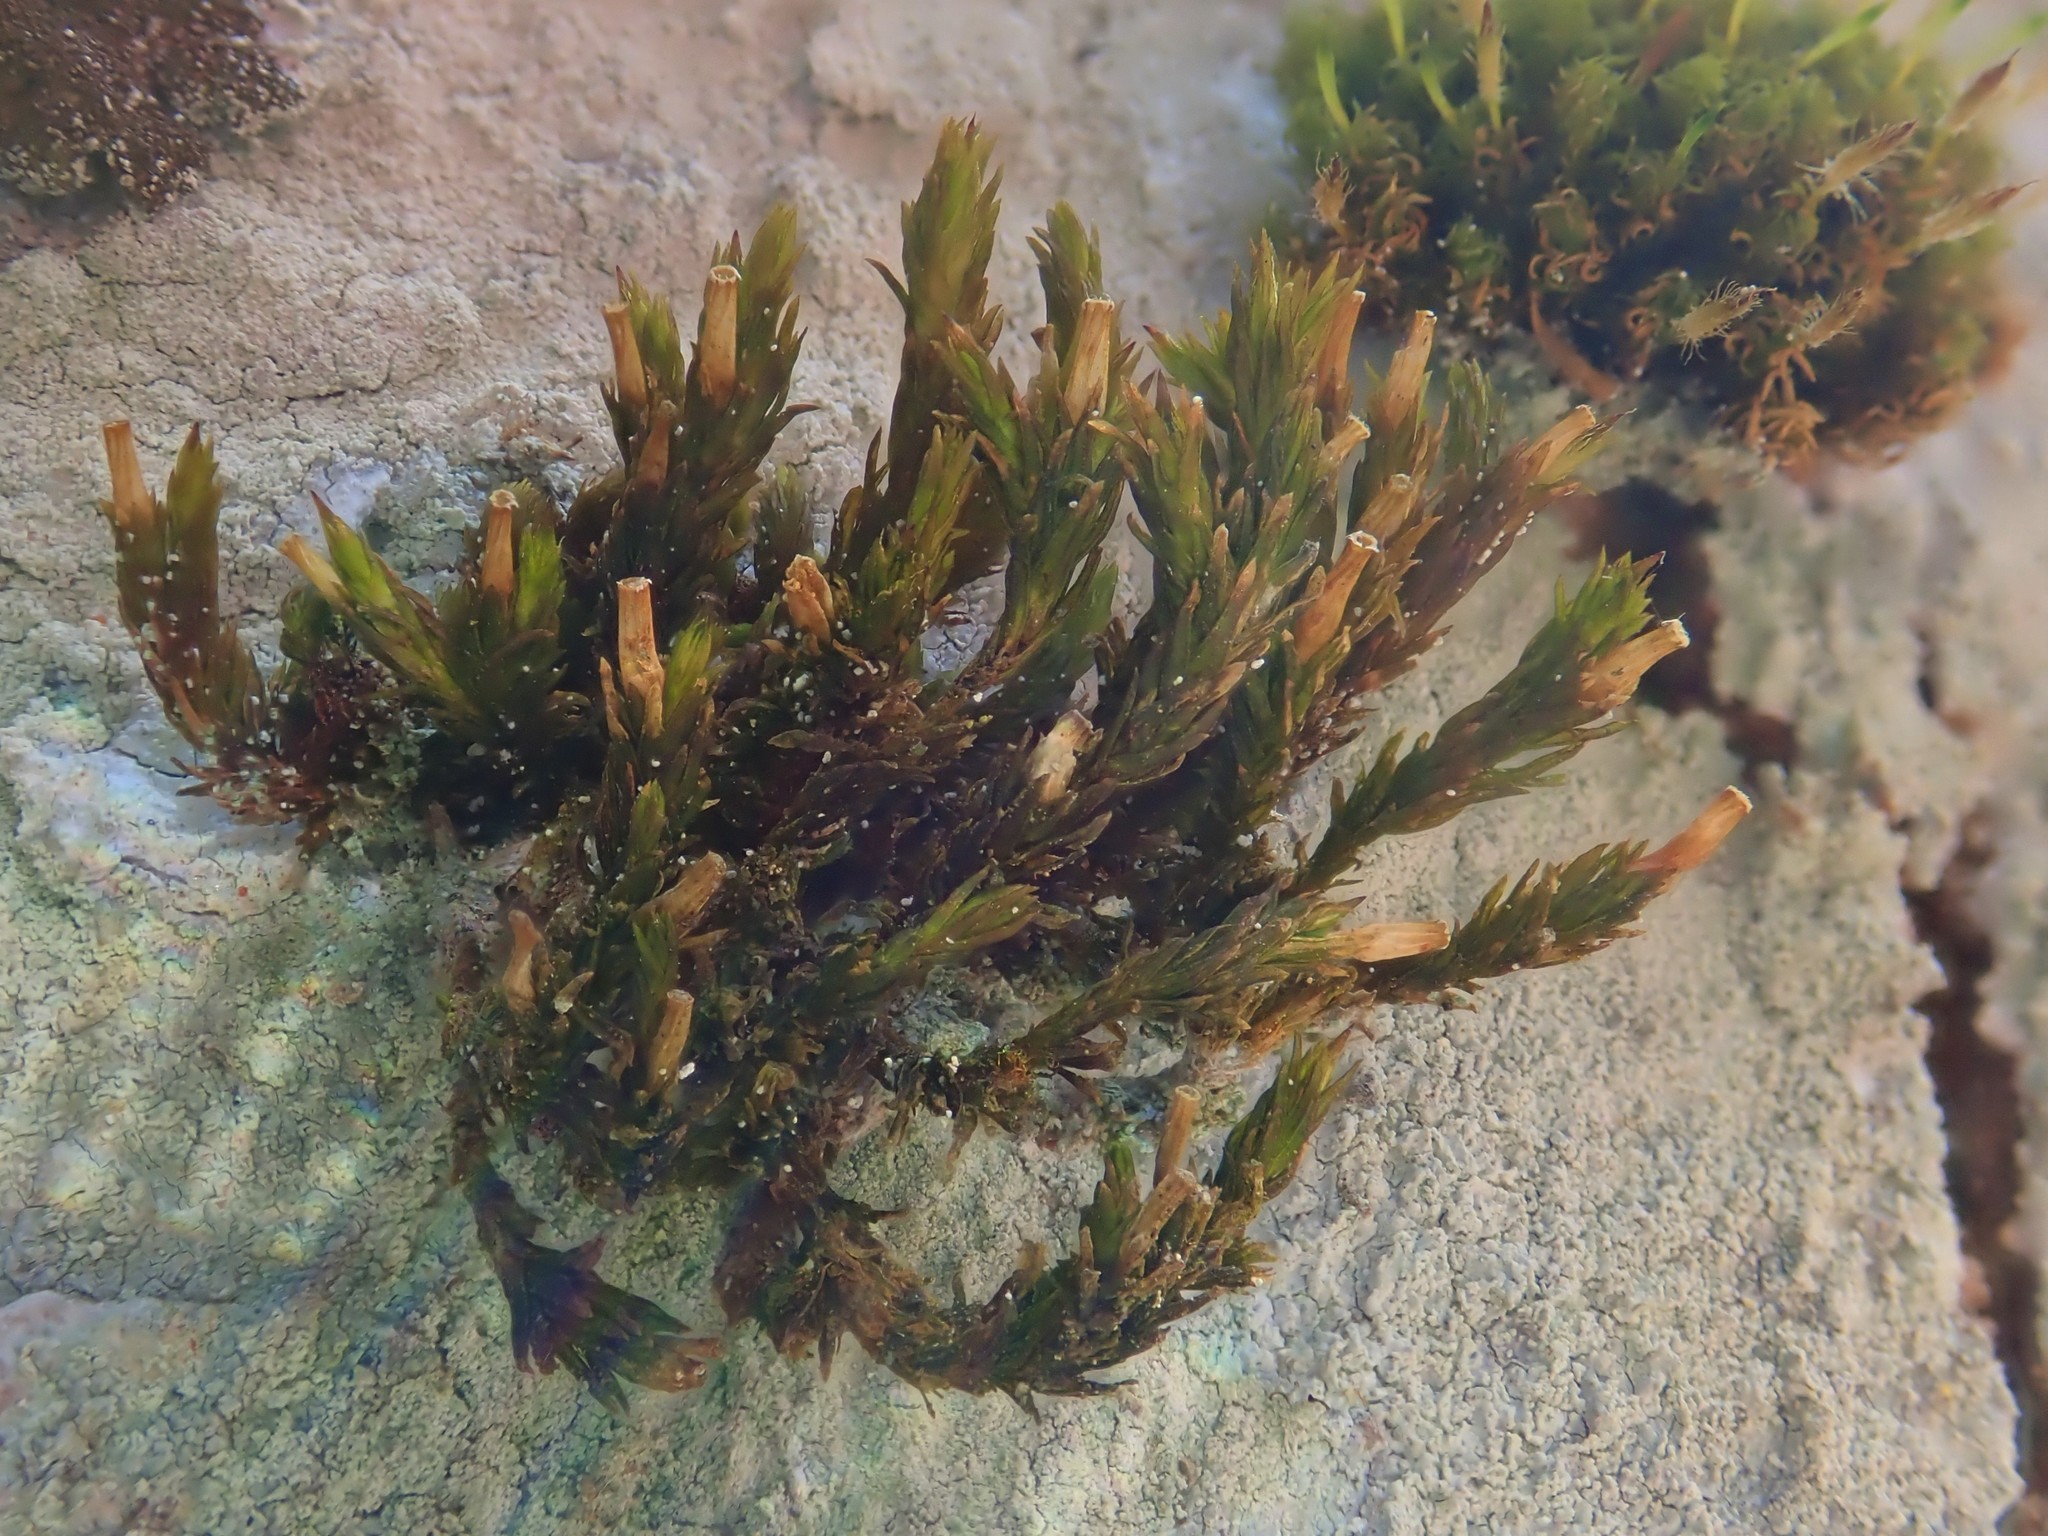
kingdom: Plantae
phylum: Bryophyta
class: Bryopsida
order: Orthotrichales
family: Orthotrichaceae
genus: Lewinskya
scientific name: Lewinskya affinis
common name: Wood bristle-moss
